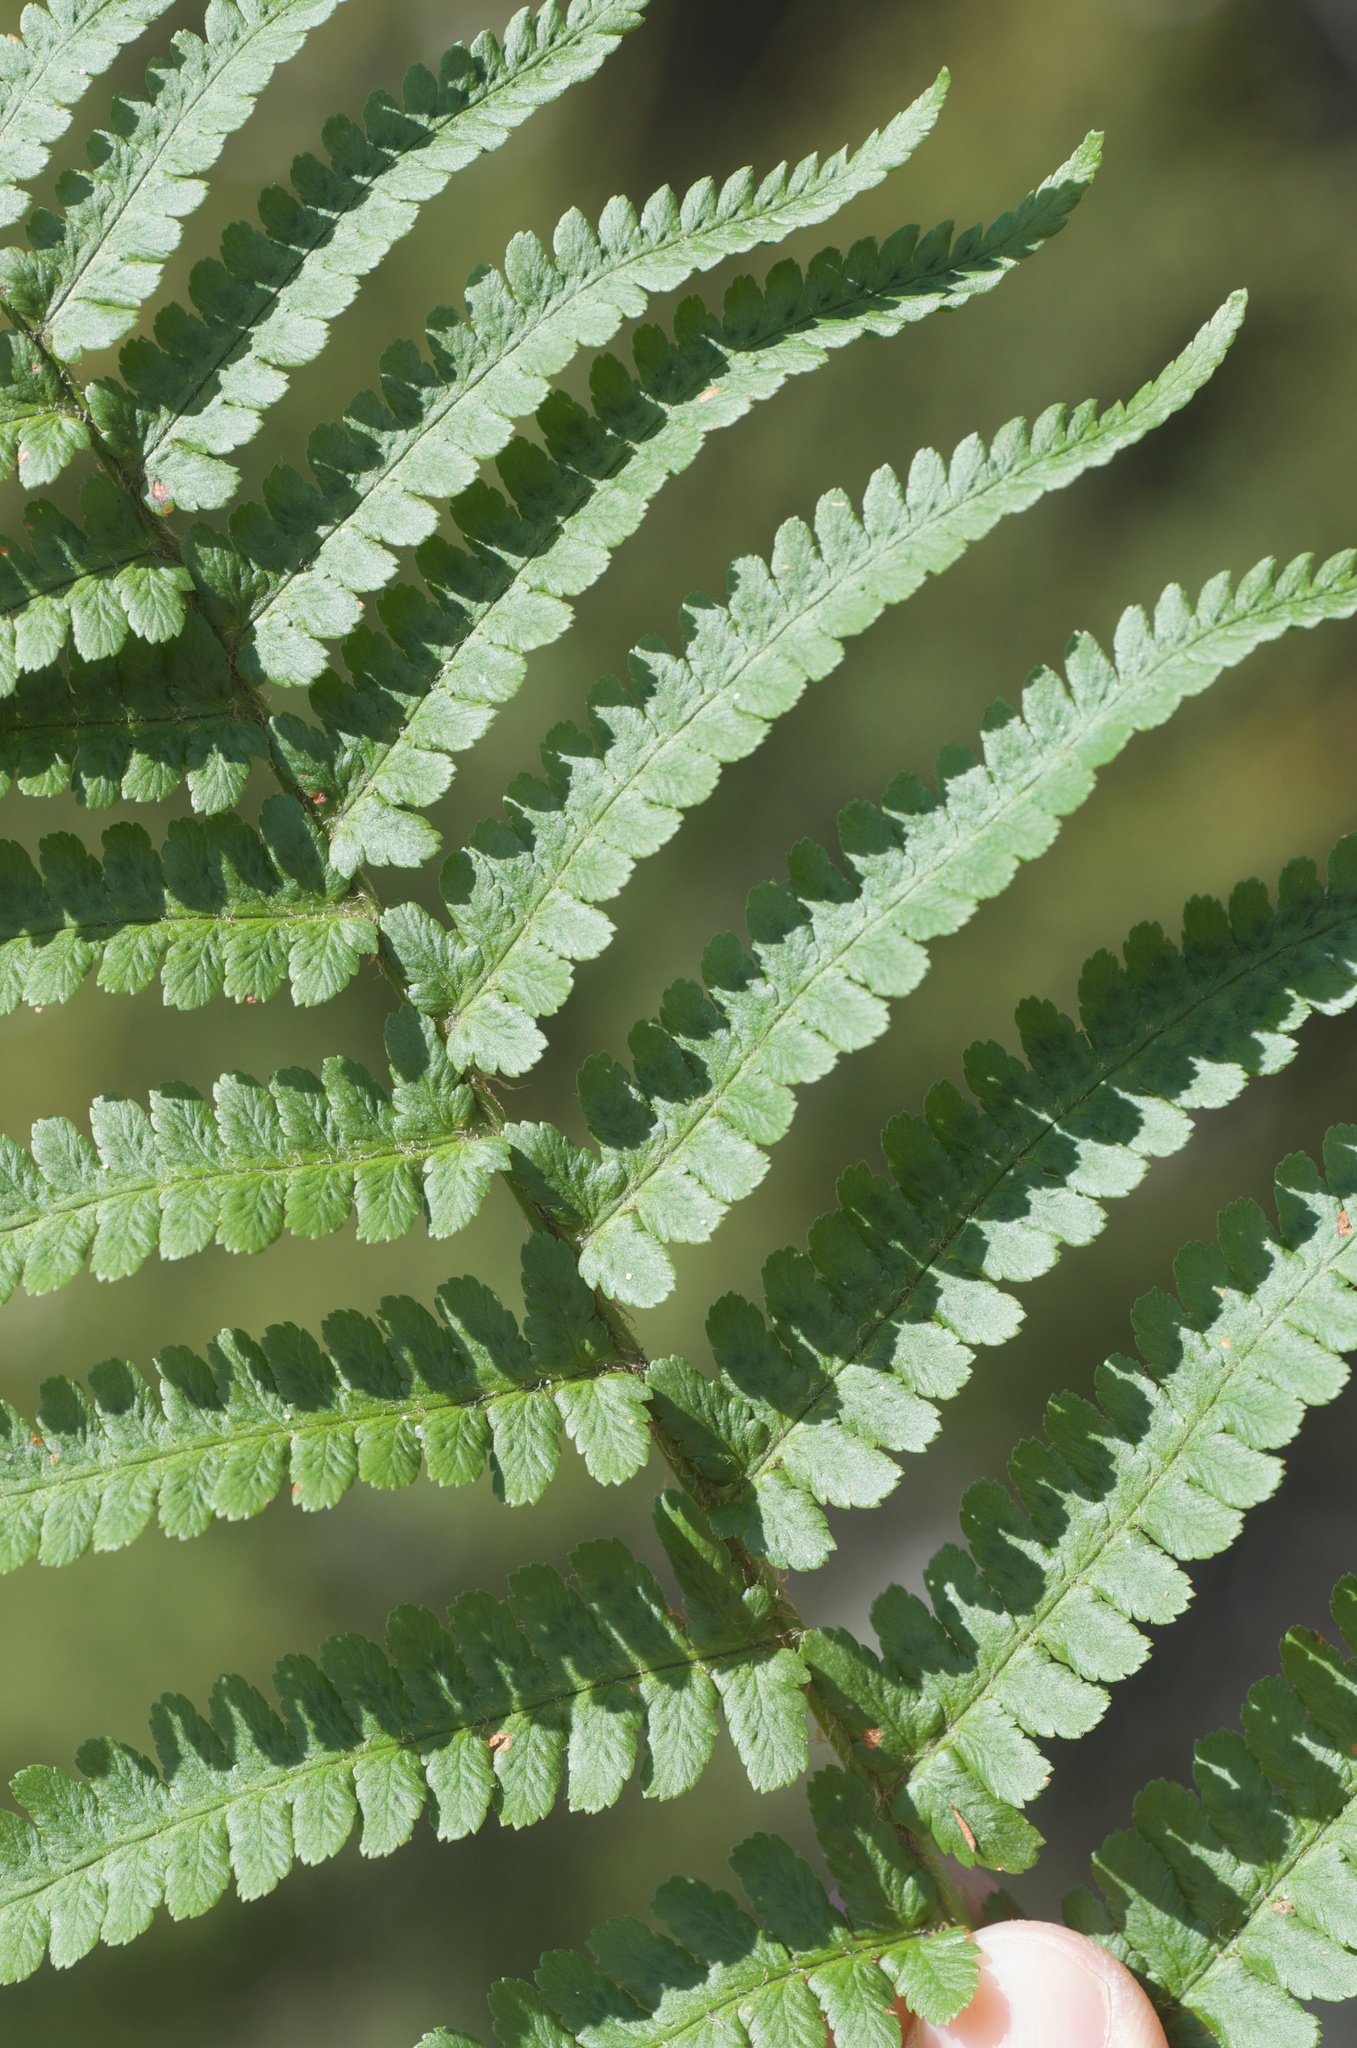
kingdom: Plantae
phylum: Tracheophyta
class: Polypodiopsida
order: Polypodiales
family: Dryopteridaceae
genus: Dryopteris
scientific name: Dryopteris filix-mas
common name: Male fern
